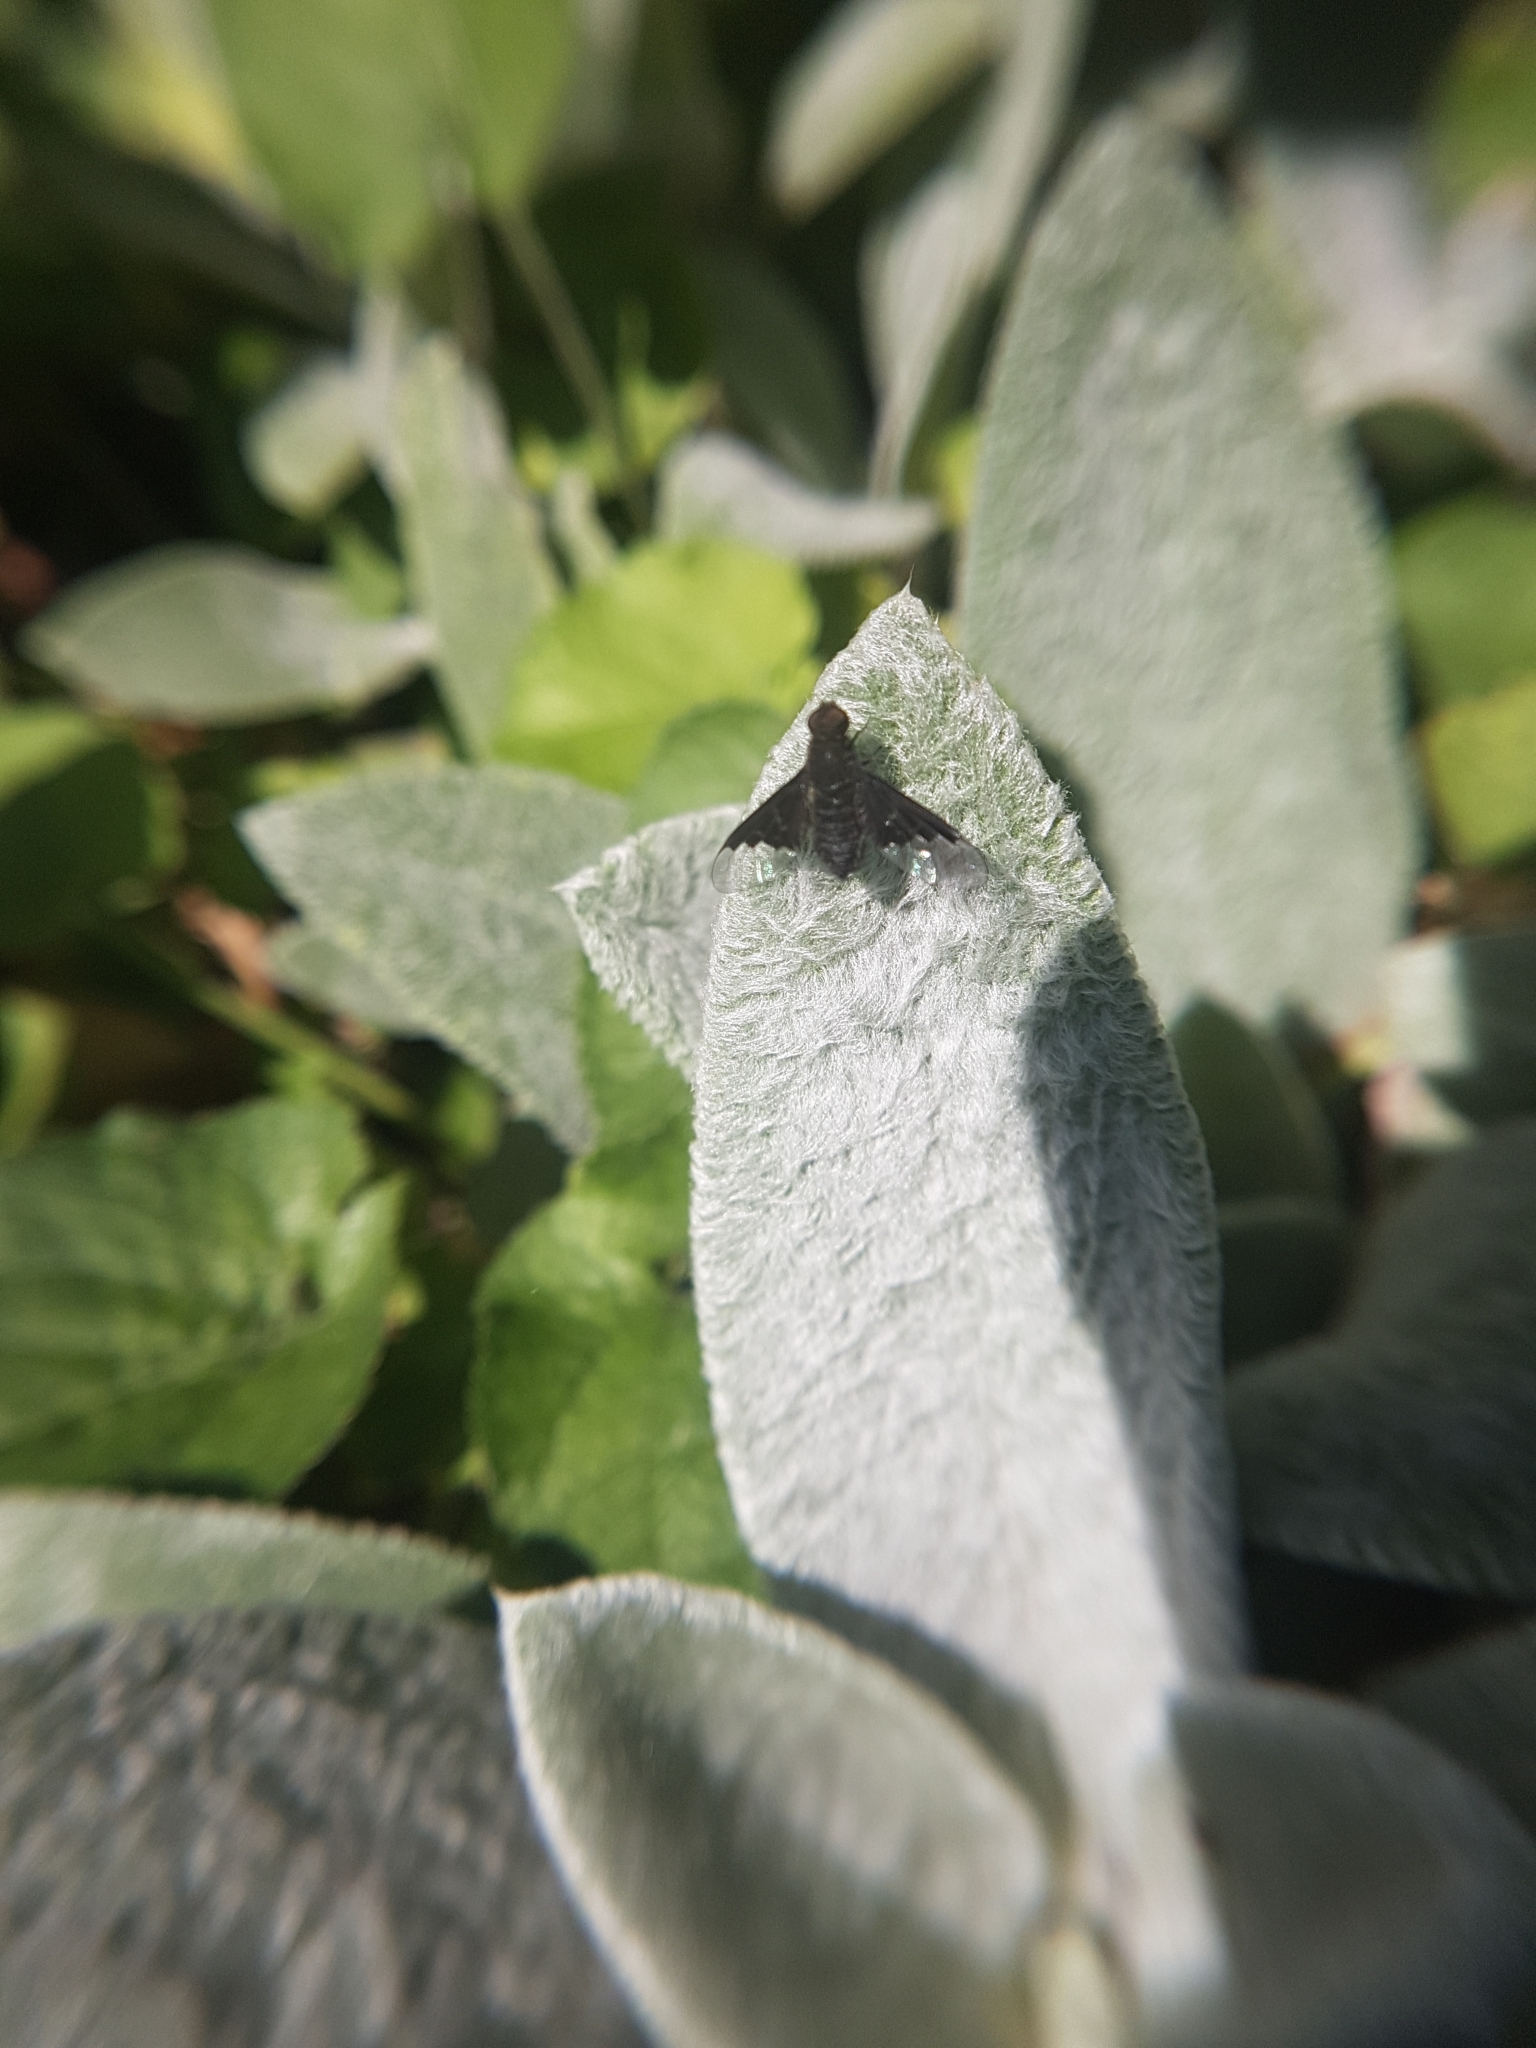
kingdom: Animalia
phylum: Arthropoda
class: Insecta
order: Diptera
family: Bombyliidae
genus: Hemipenthes
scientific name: Hemipenthes morio
